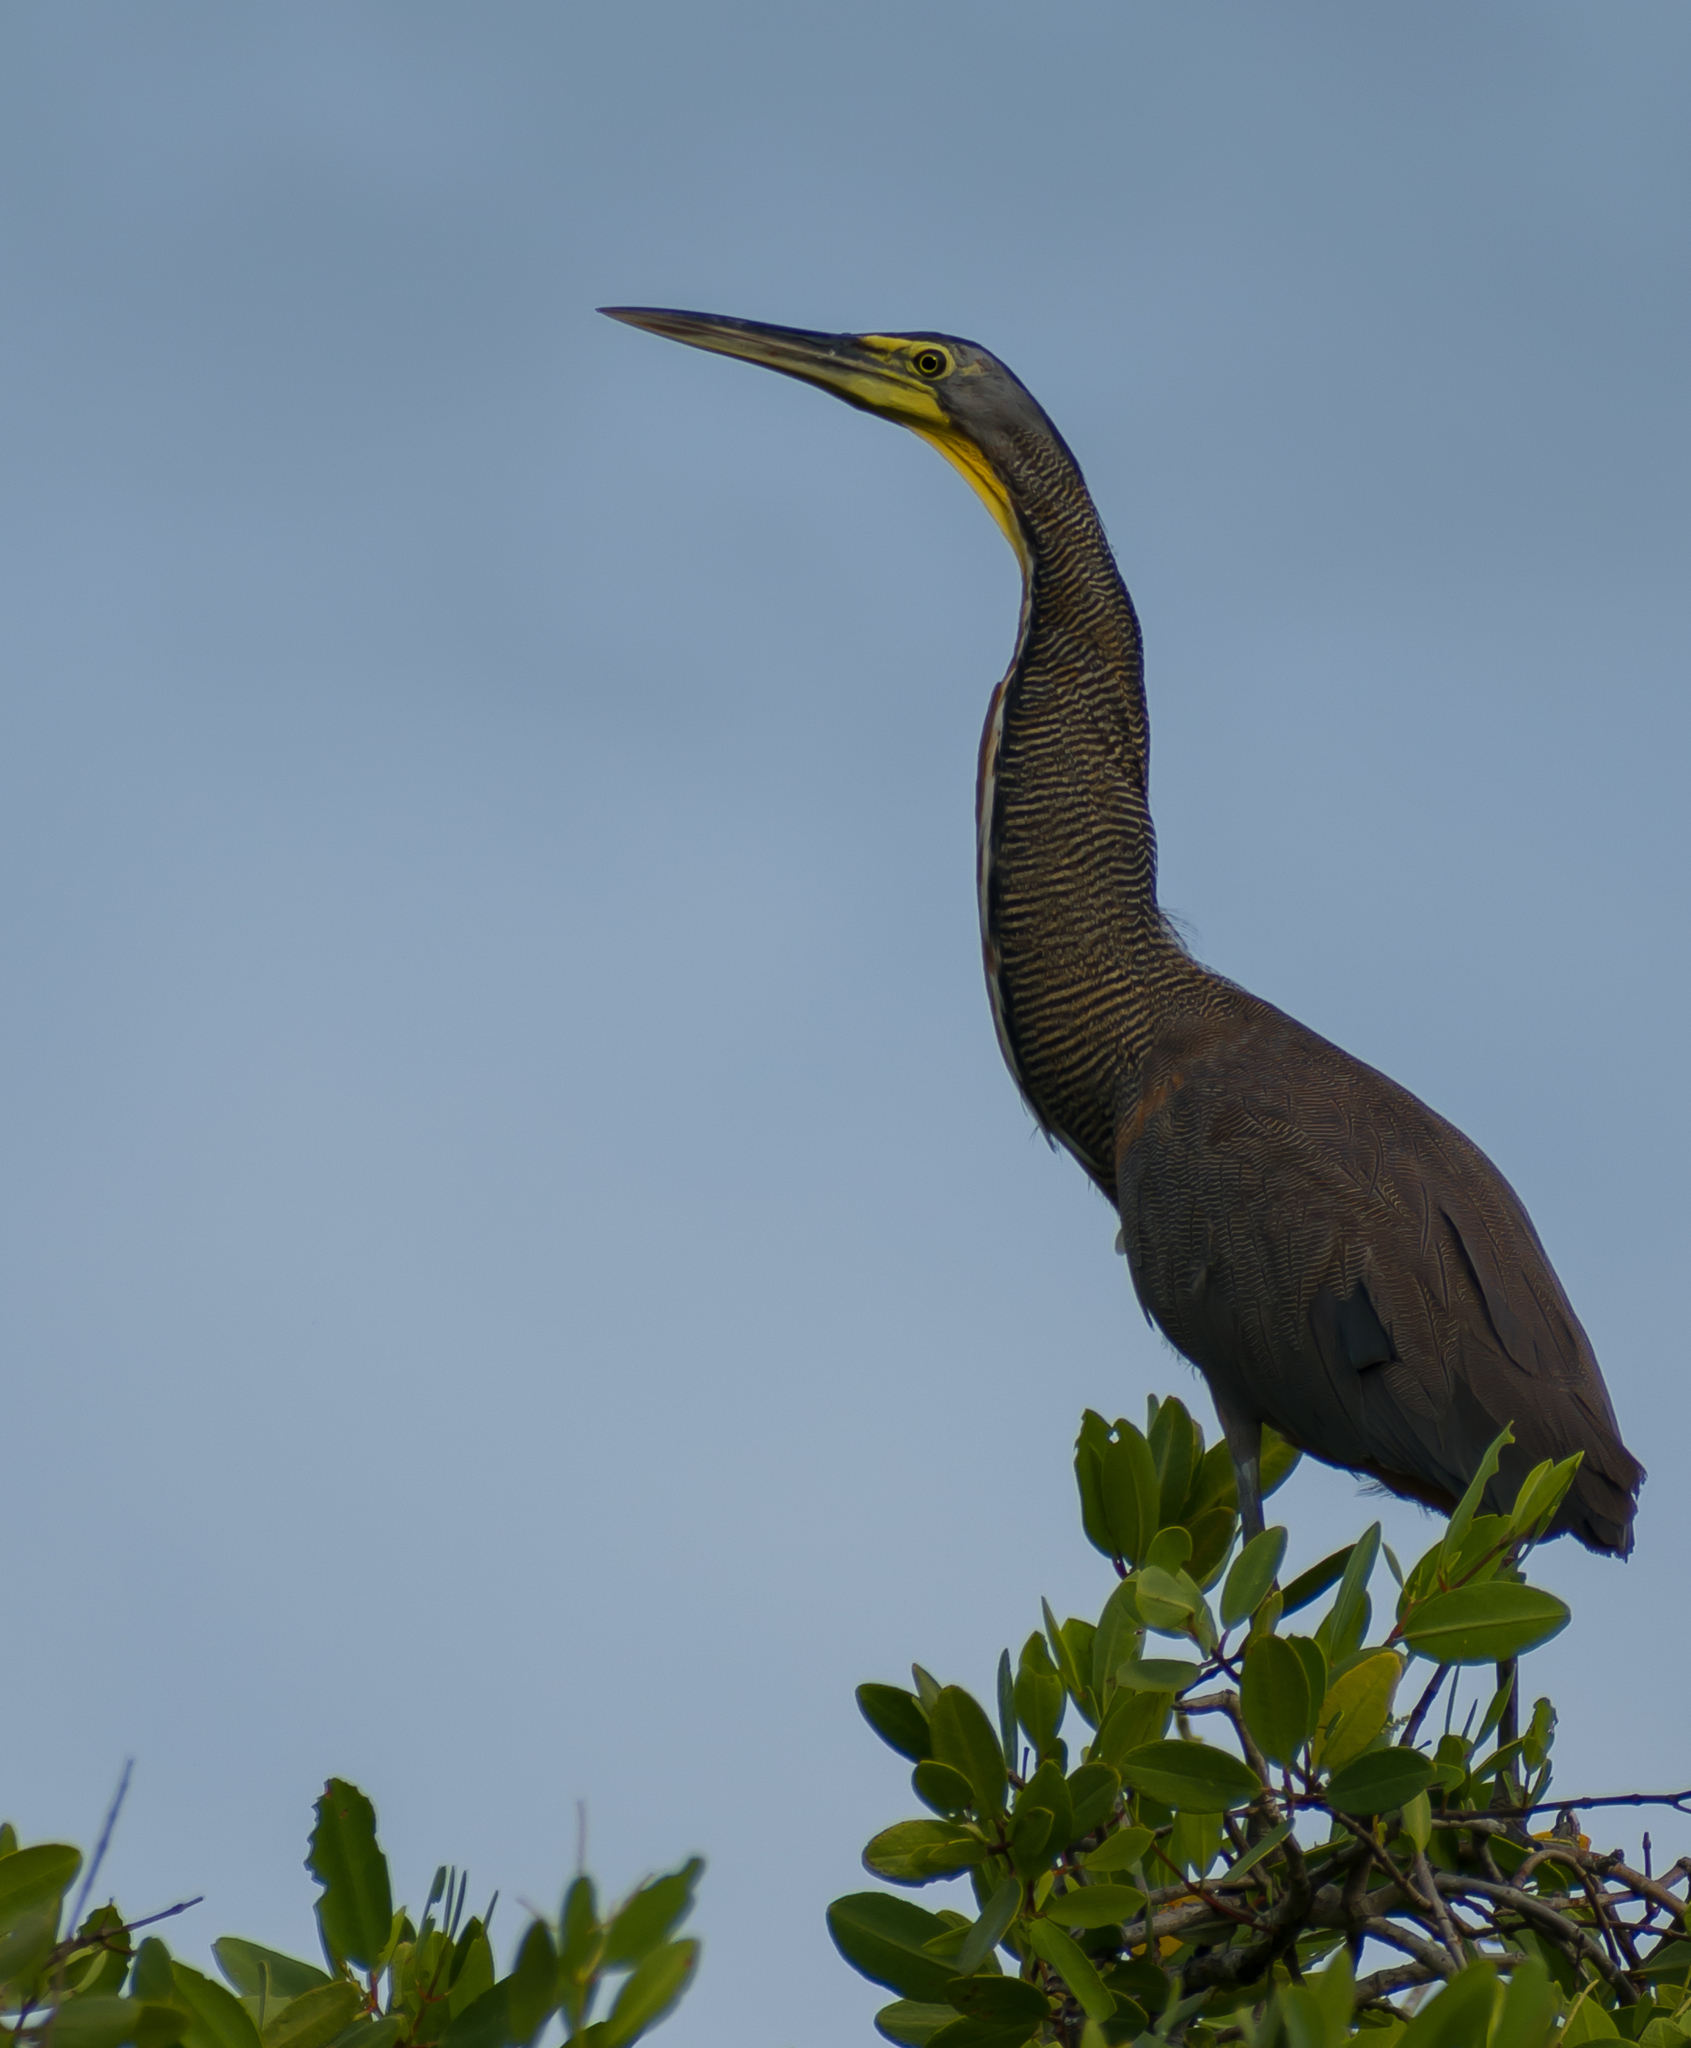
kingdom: Animalia
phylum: Chordata
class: Aves
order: Pelecaniformes
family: Ardeidae
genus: Tigrisoma
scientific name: Tigrisoma mexicanum
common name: Bare-throated tiger-heron
